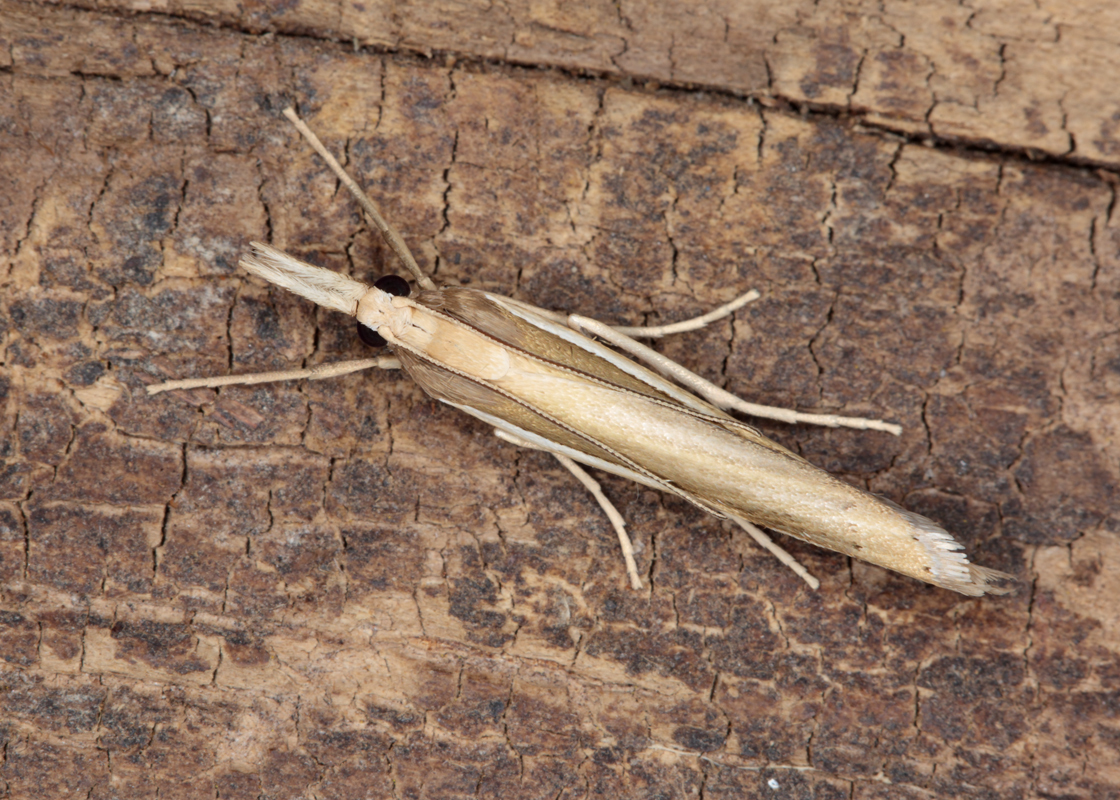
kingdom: Animalia
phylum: Arthropoda
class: Insecta
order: Lepidoptera
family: Crambidae
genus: Orocrambus
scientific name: Orocrambus ramosellus
